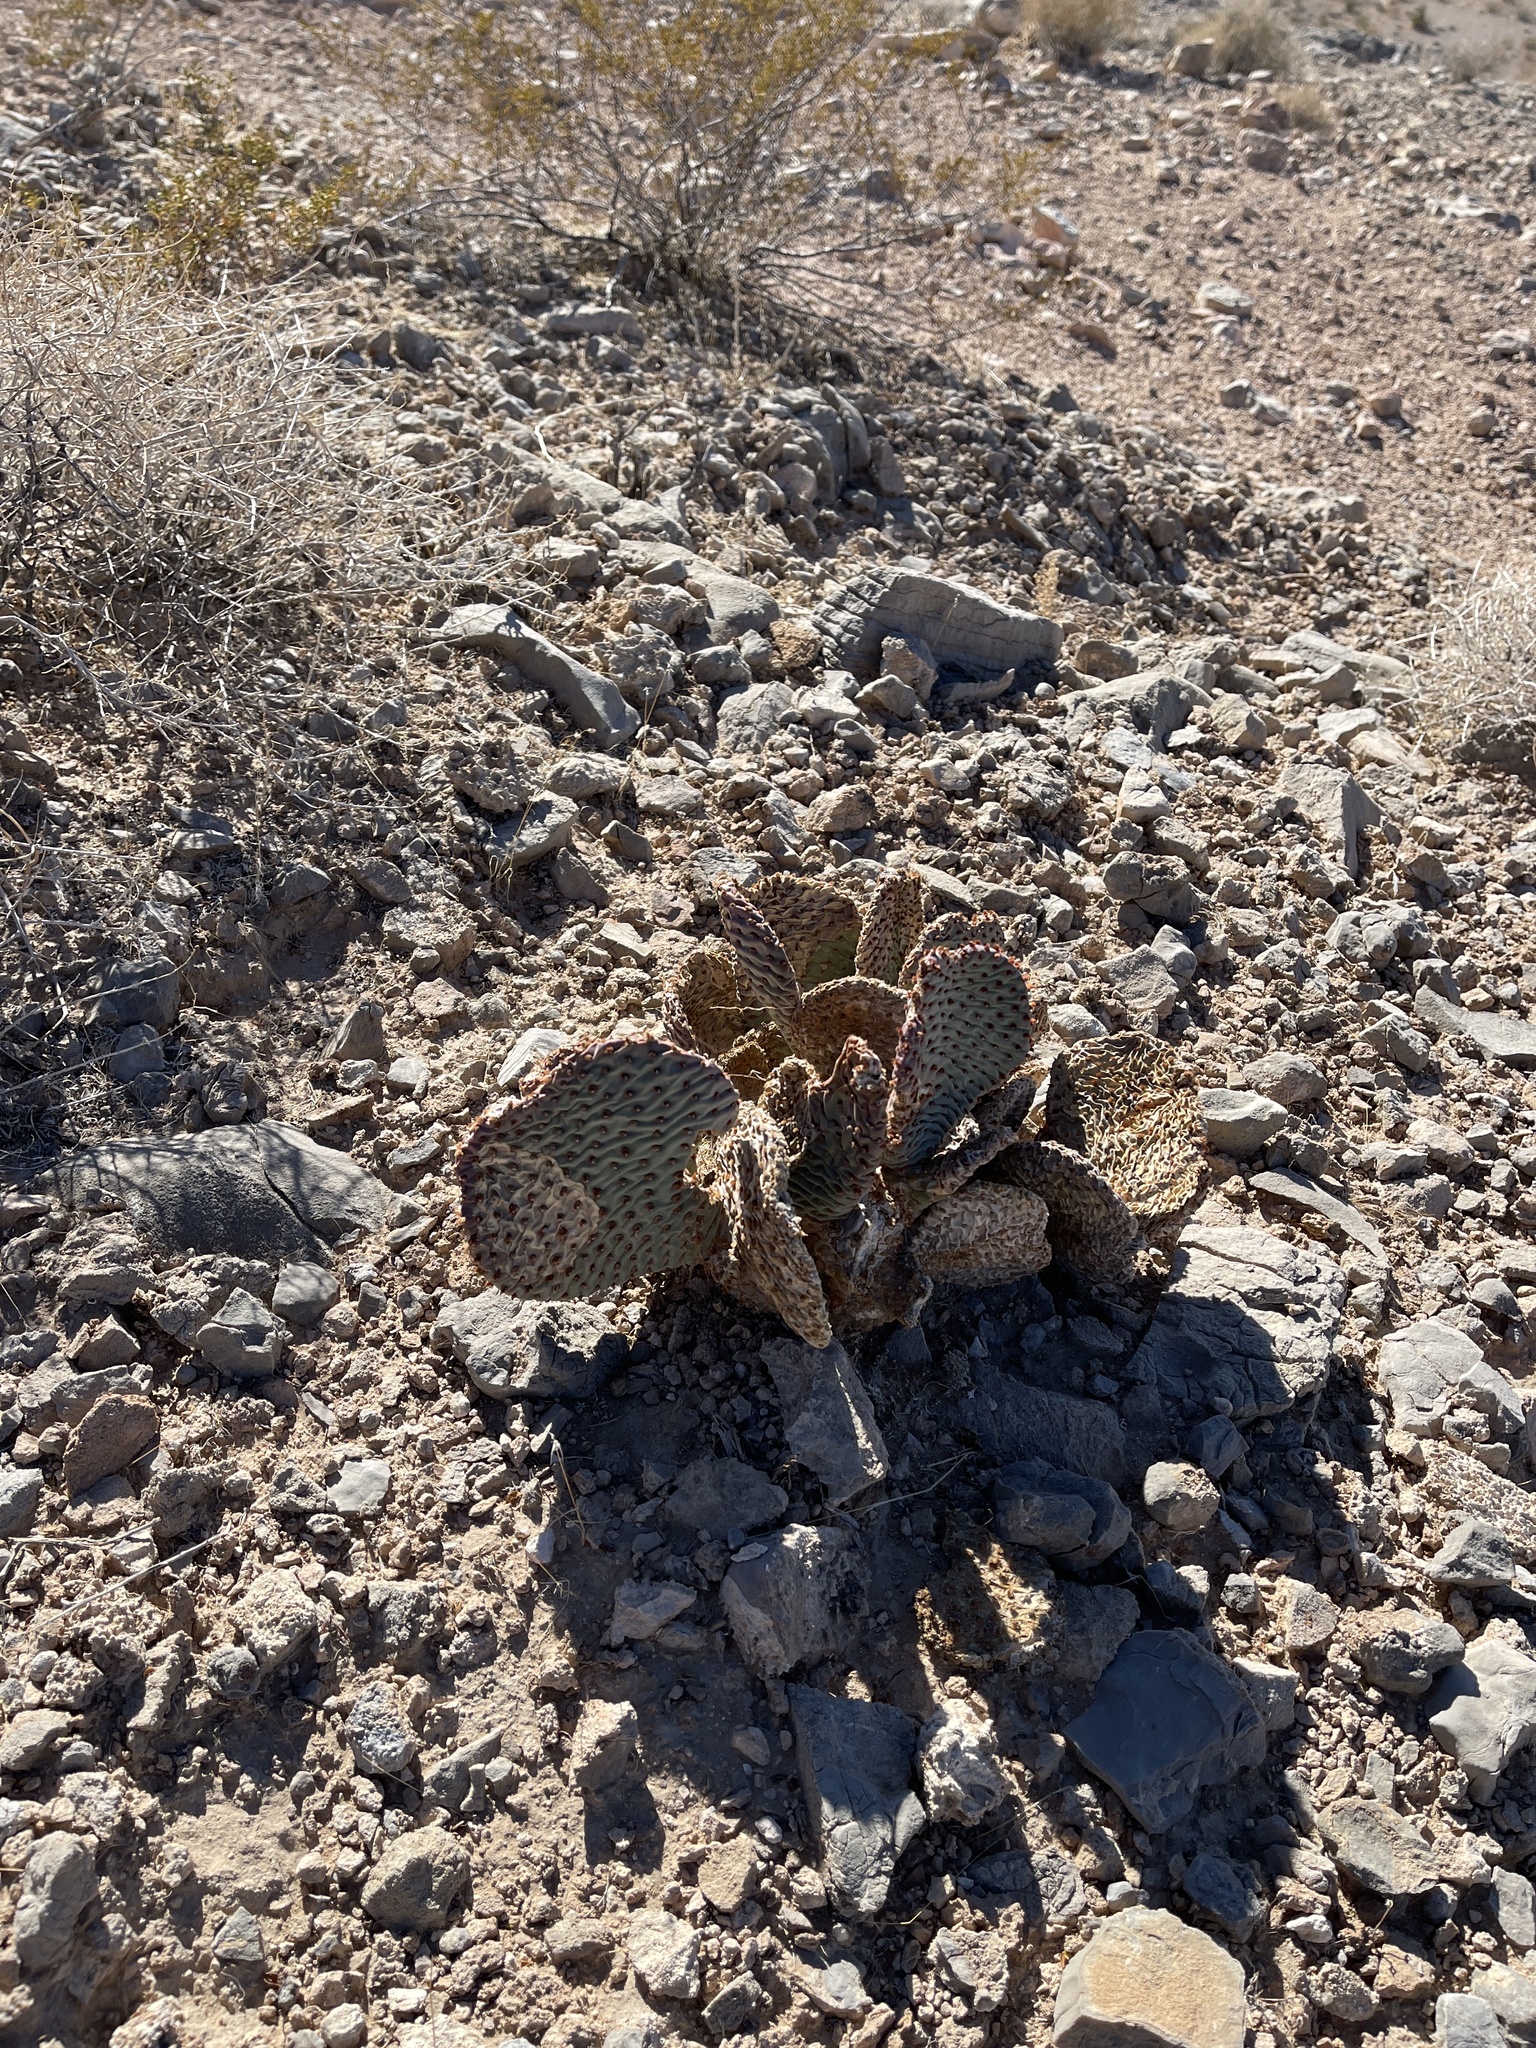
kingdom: Plantae
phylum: Tracheophyta
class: Magnoliopsida
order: Caryophyllales
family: Cactaceae
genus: Opuntia
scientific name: Opuntia basilaris
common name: Beavertail prickly-pear
